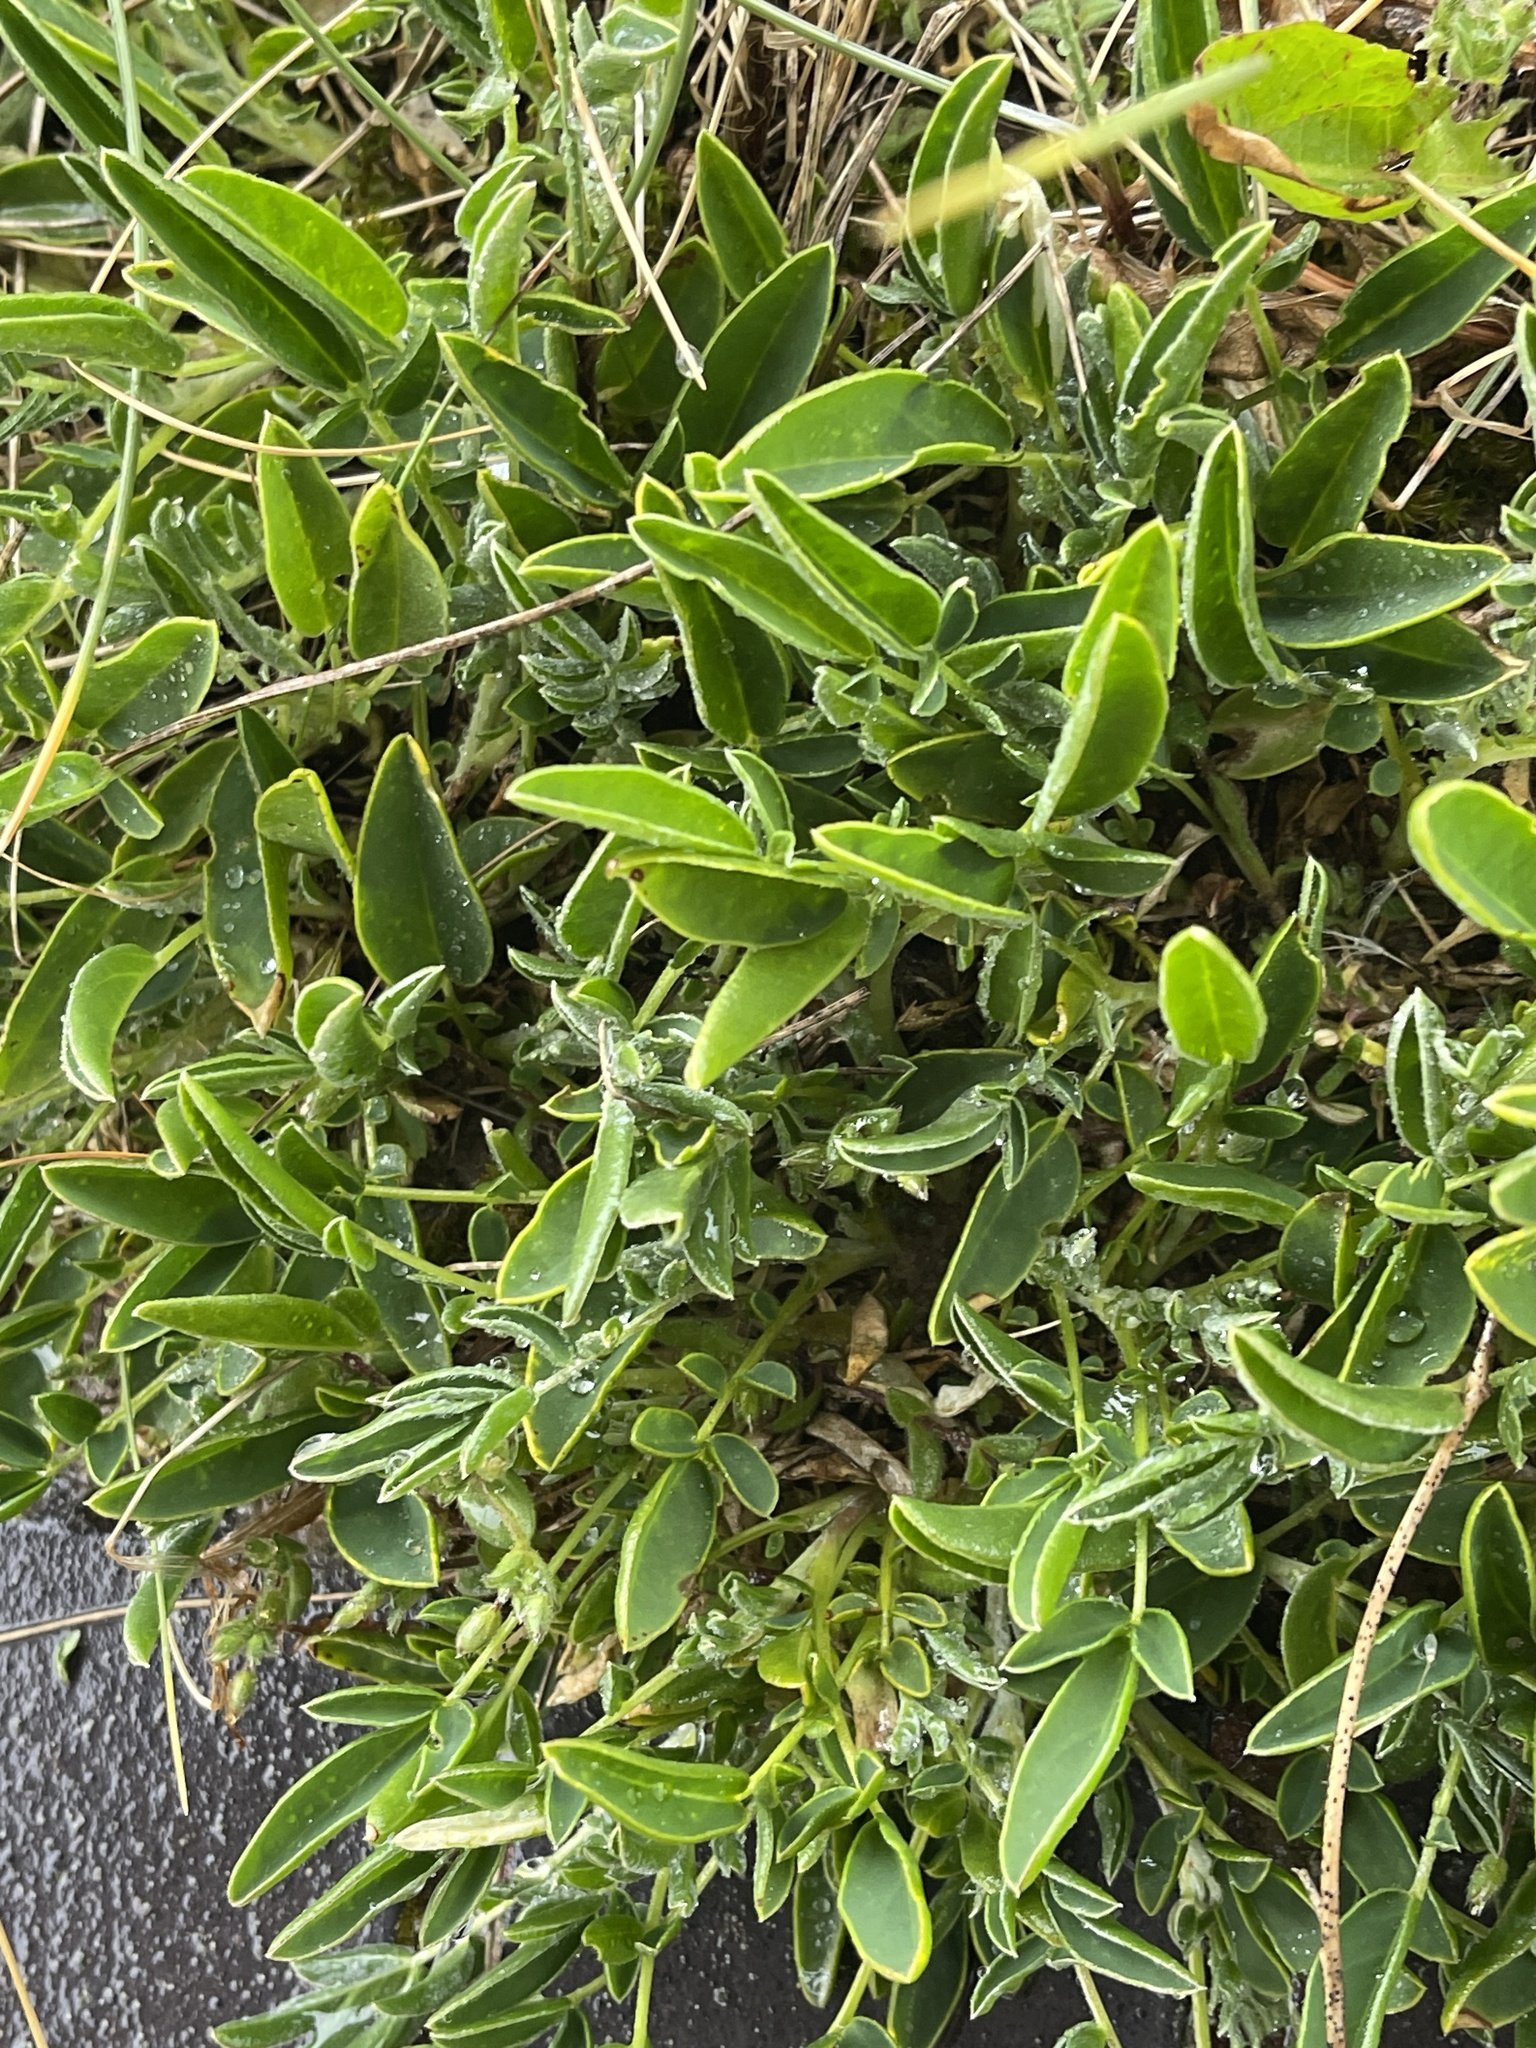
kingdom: Plantae
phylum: Tracheophyta
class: Magnoliopsida
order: Fabales
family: Fabaceae
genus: Anthyllis
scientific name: Anthyllis vulneraria
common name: Kidney vetch
